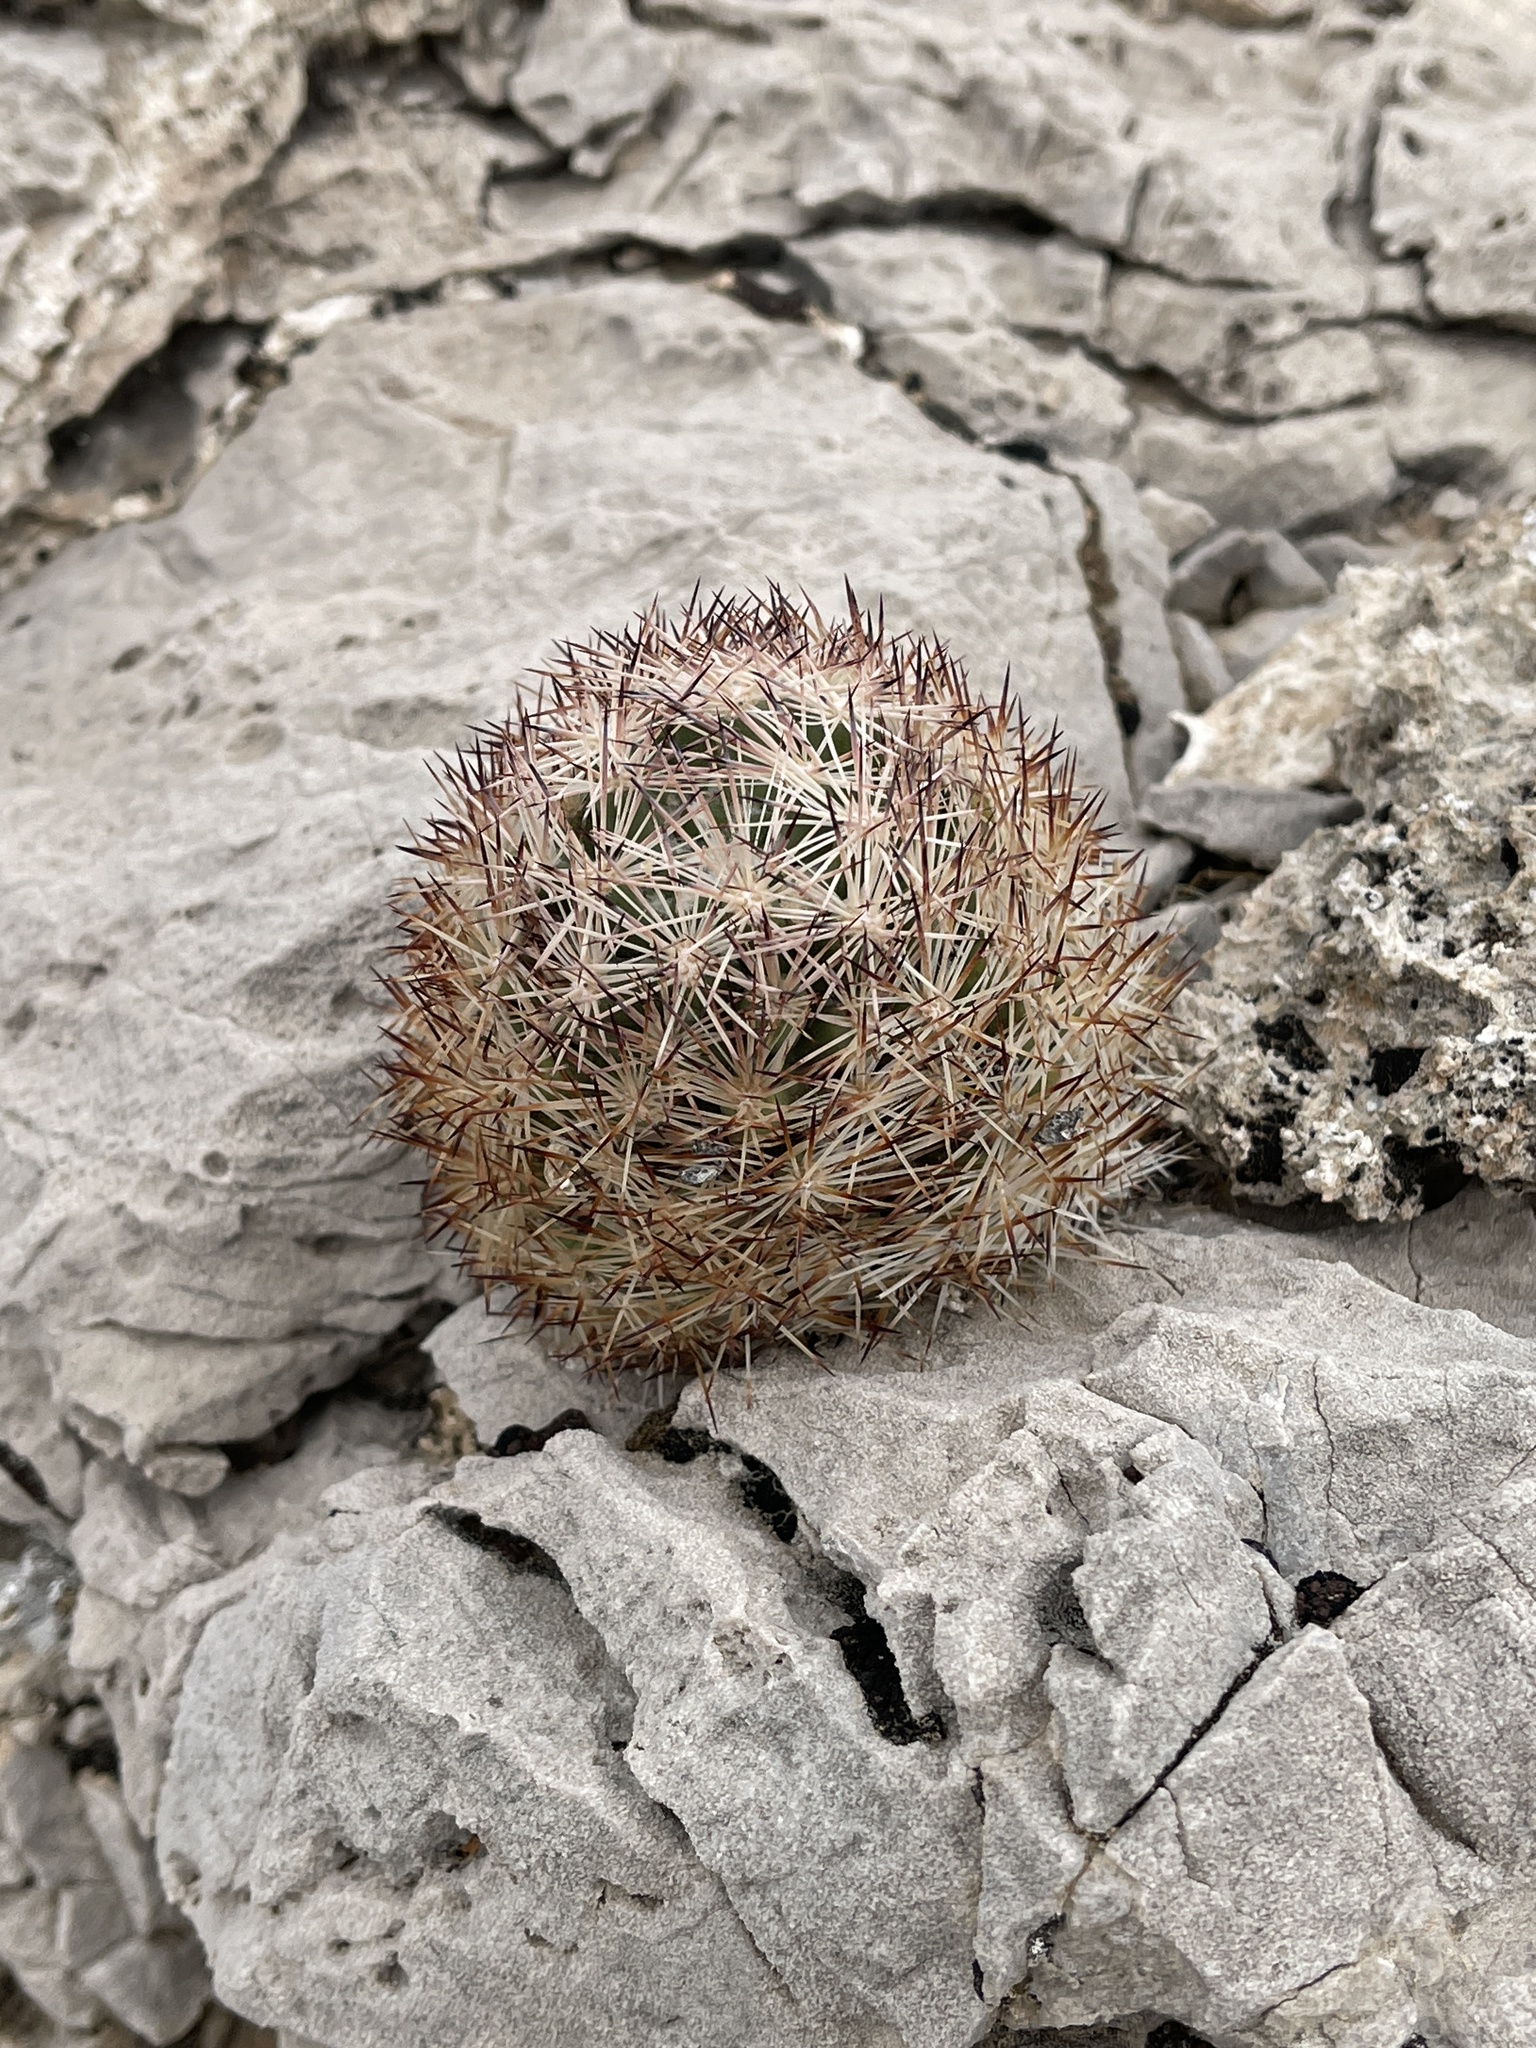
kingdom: Plantae
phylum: Tracheophyta
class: Magnoliopsida
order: Caryophyllales
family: Cactaceae
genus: Pelecyphora
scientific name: Pelecyphora dasyacantha
